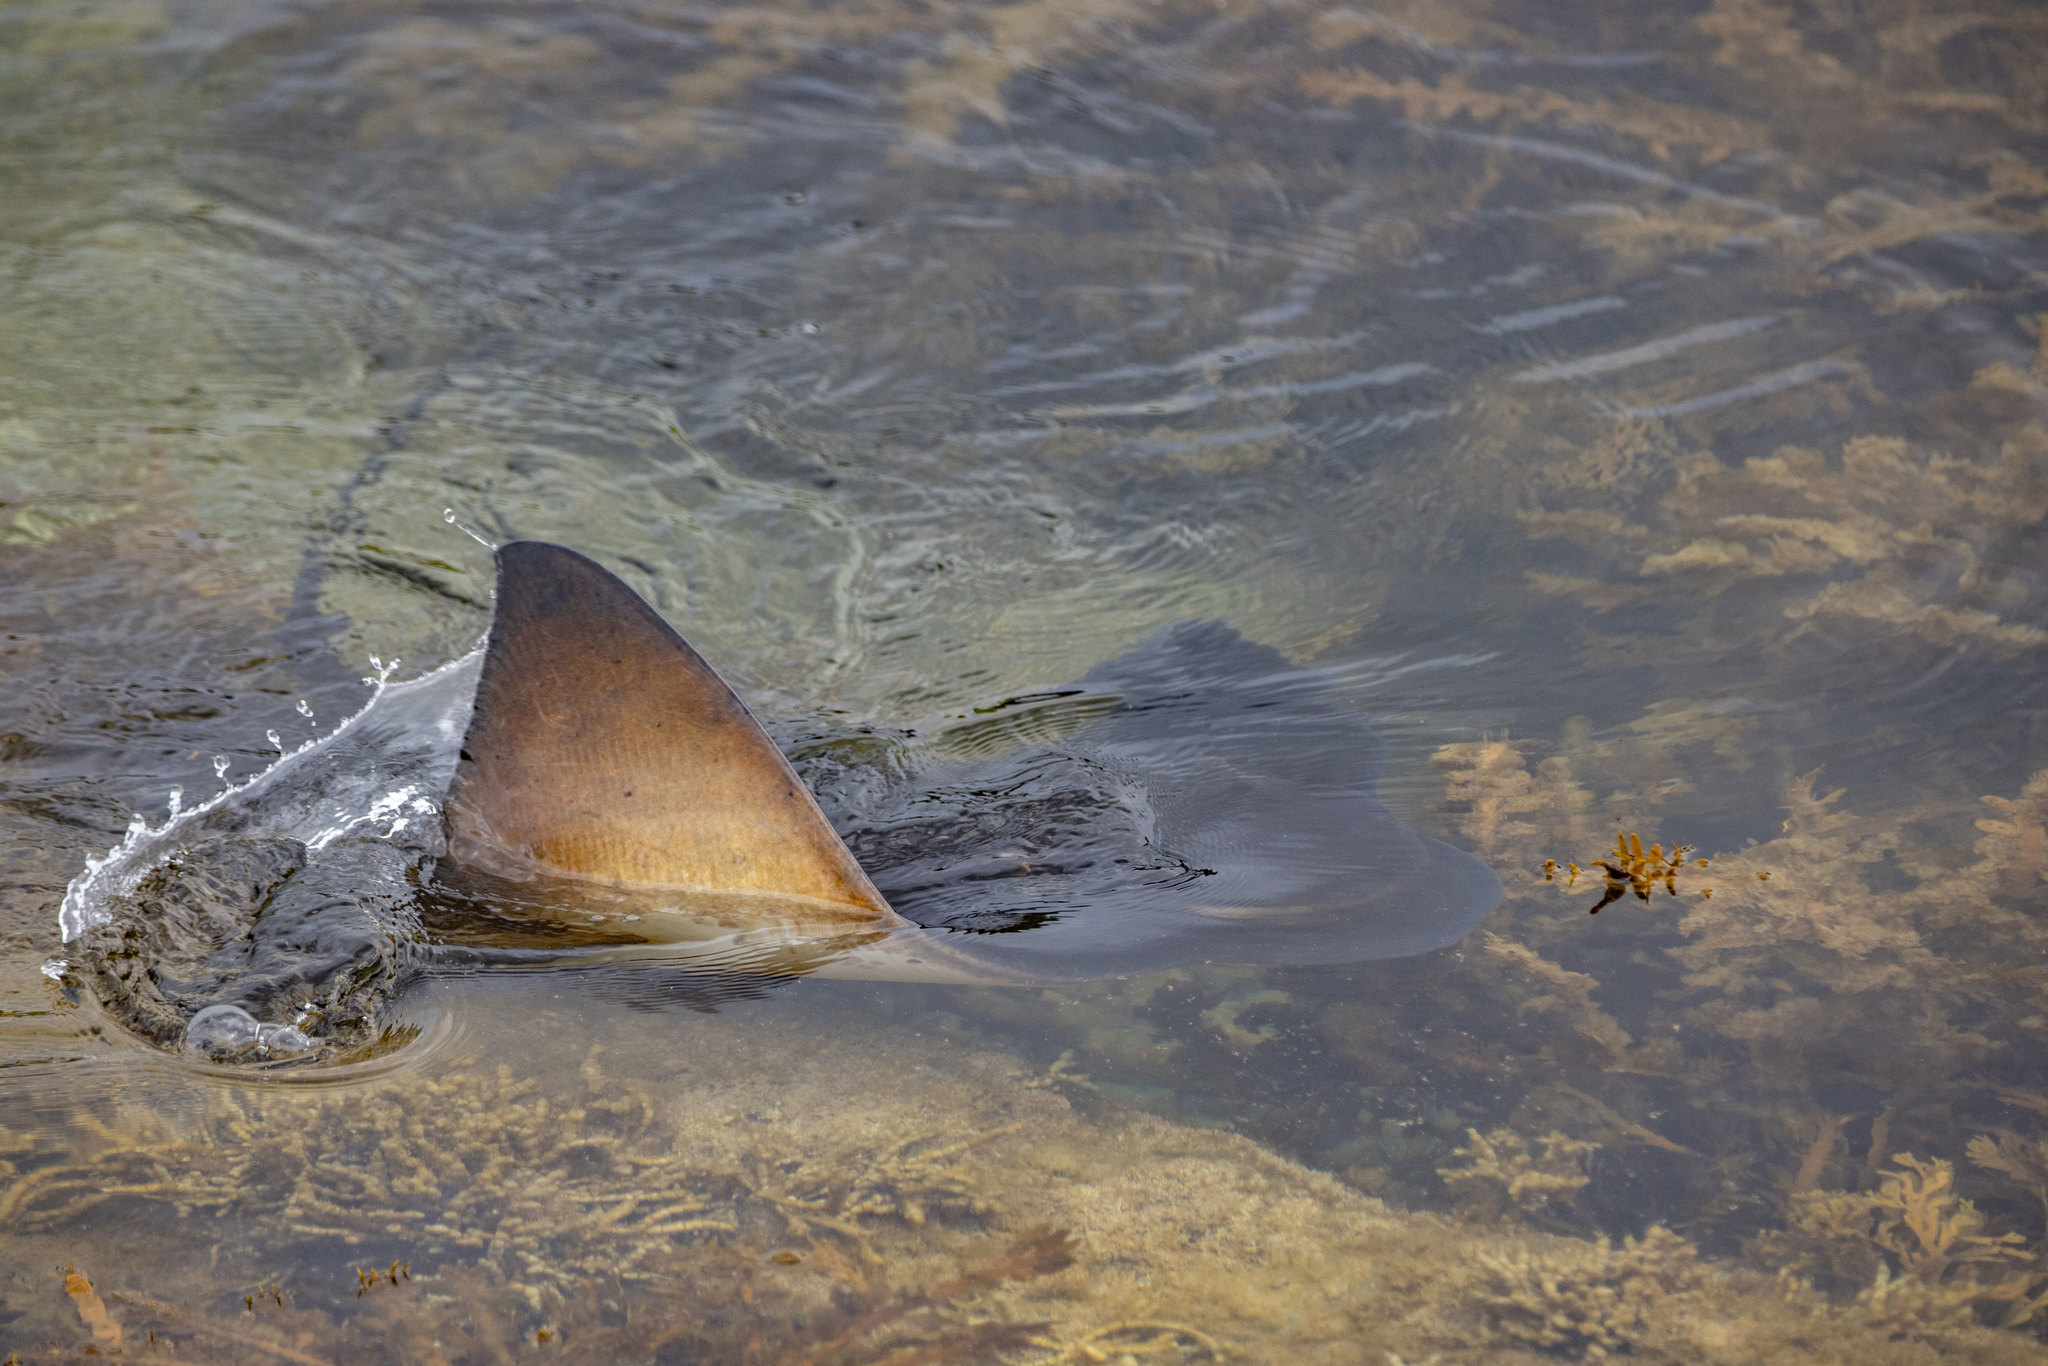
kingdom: Animalia
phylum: Chordata
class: Elasmobranchii
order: Myliobatiformes
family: Myliobatidae
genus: Myliobatis
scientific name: Myliobatis tenuicaudatus
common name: Eagle ray
